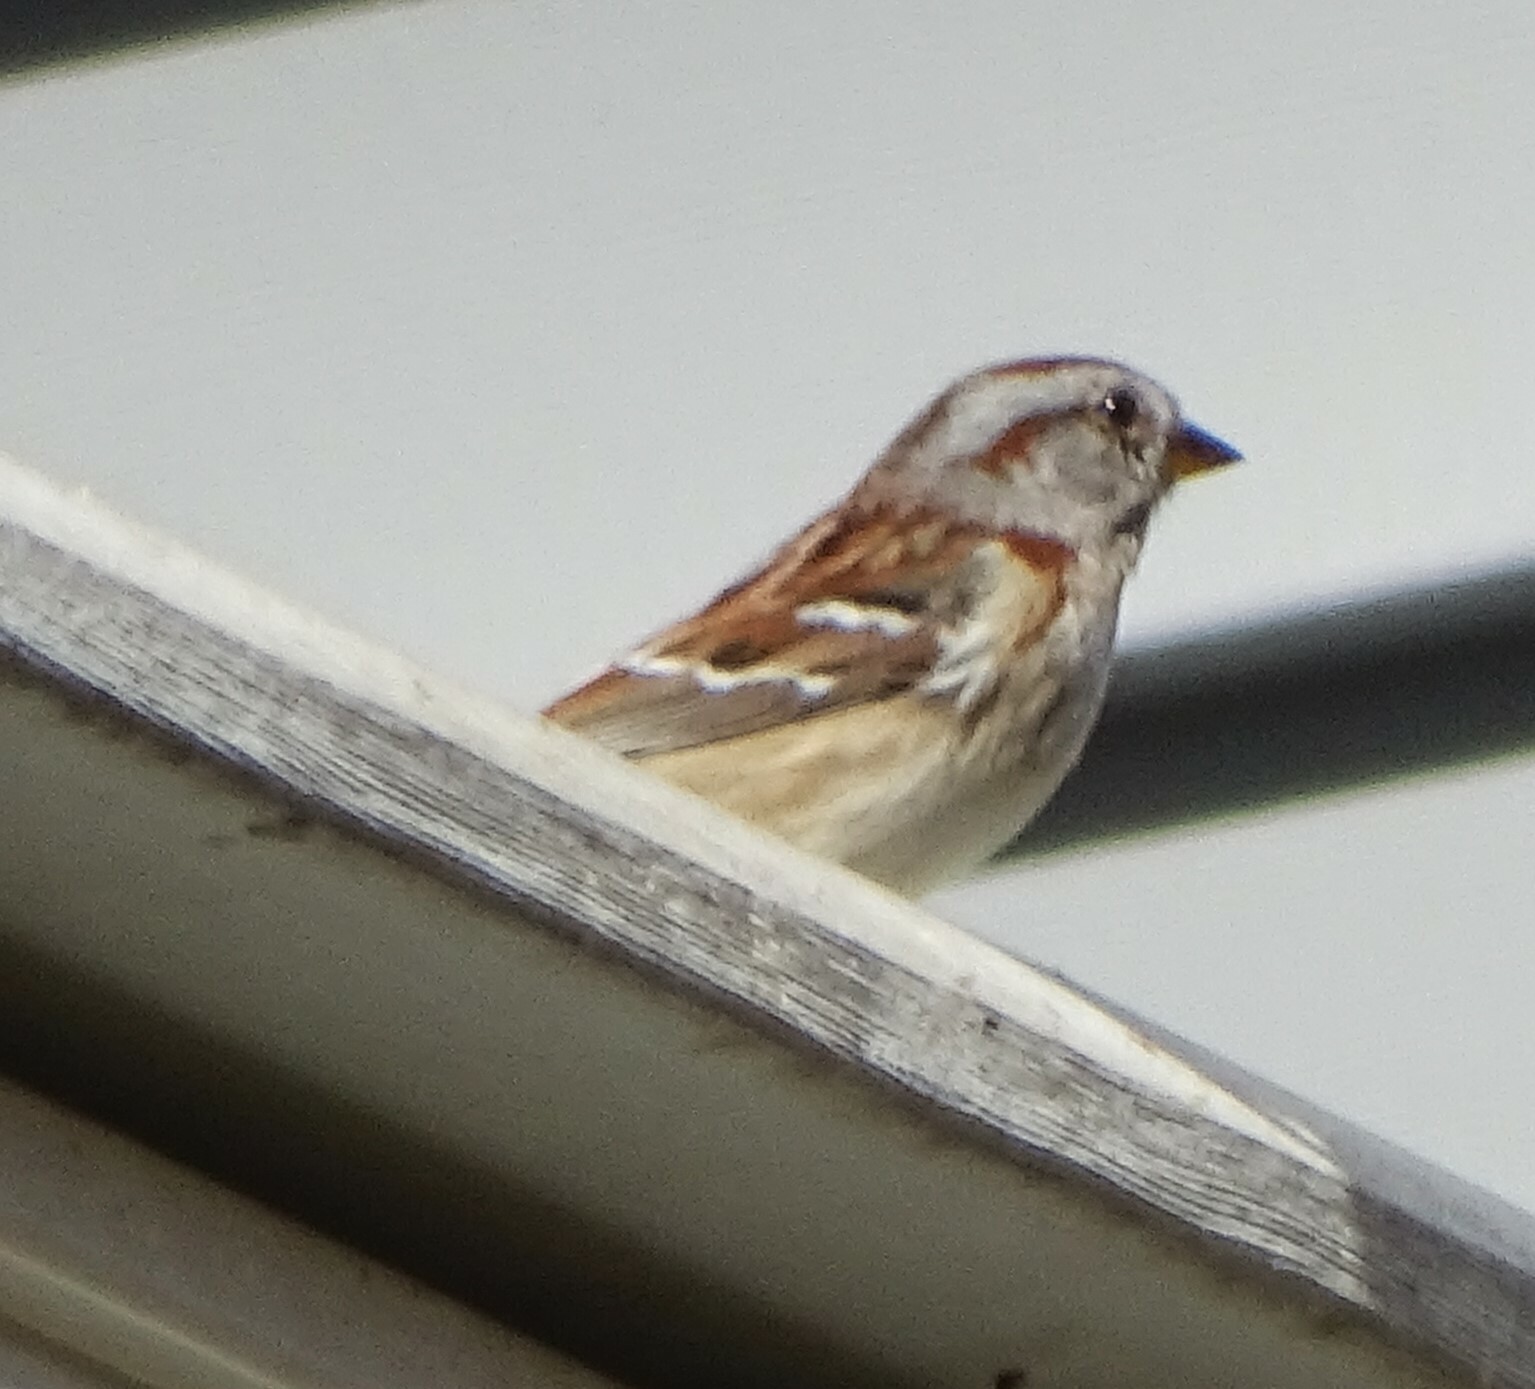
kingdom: Animalia
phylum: Chordata
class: Aves
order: Passeriformes
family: Passerellidae
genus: Spizelloides
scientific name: Spizelloides arborea
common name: American tree sparrow
